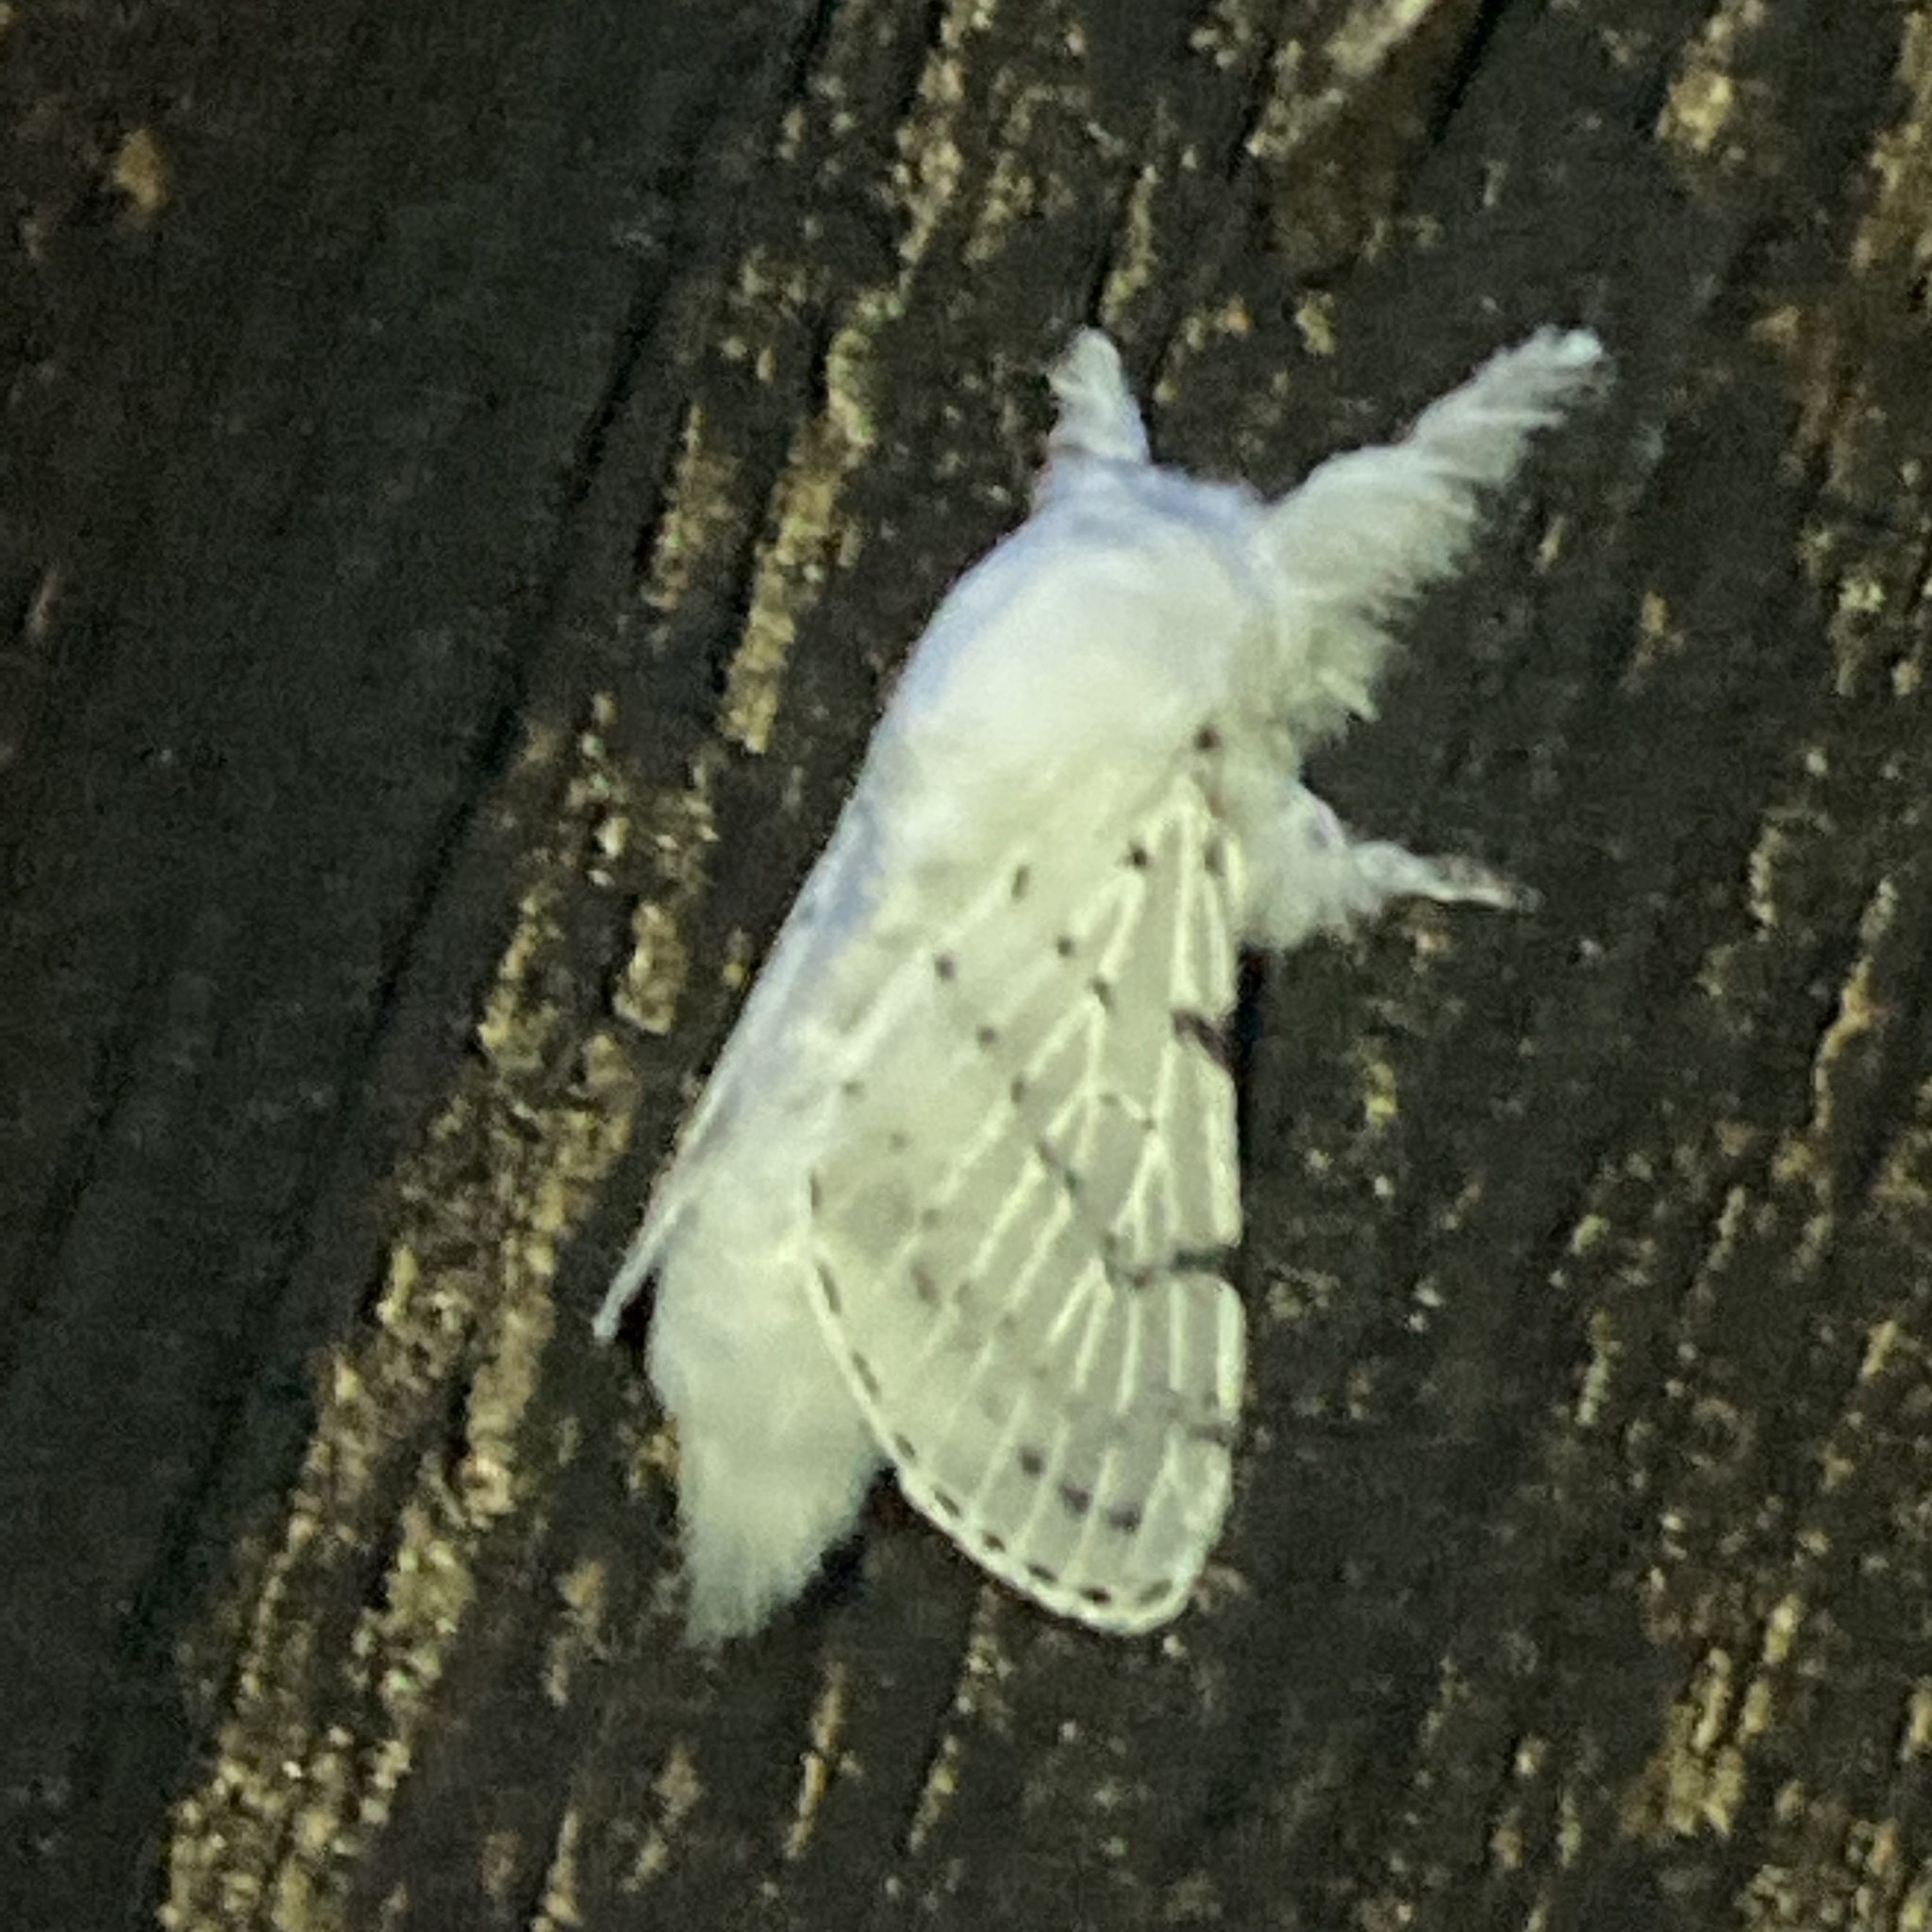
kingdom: Animalia
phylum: Arthropoda
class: Insecta
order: Lepidoptera
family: Lasiocampidae
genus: Artace
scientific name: Artace cribrarius
